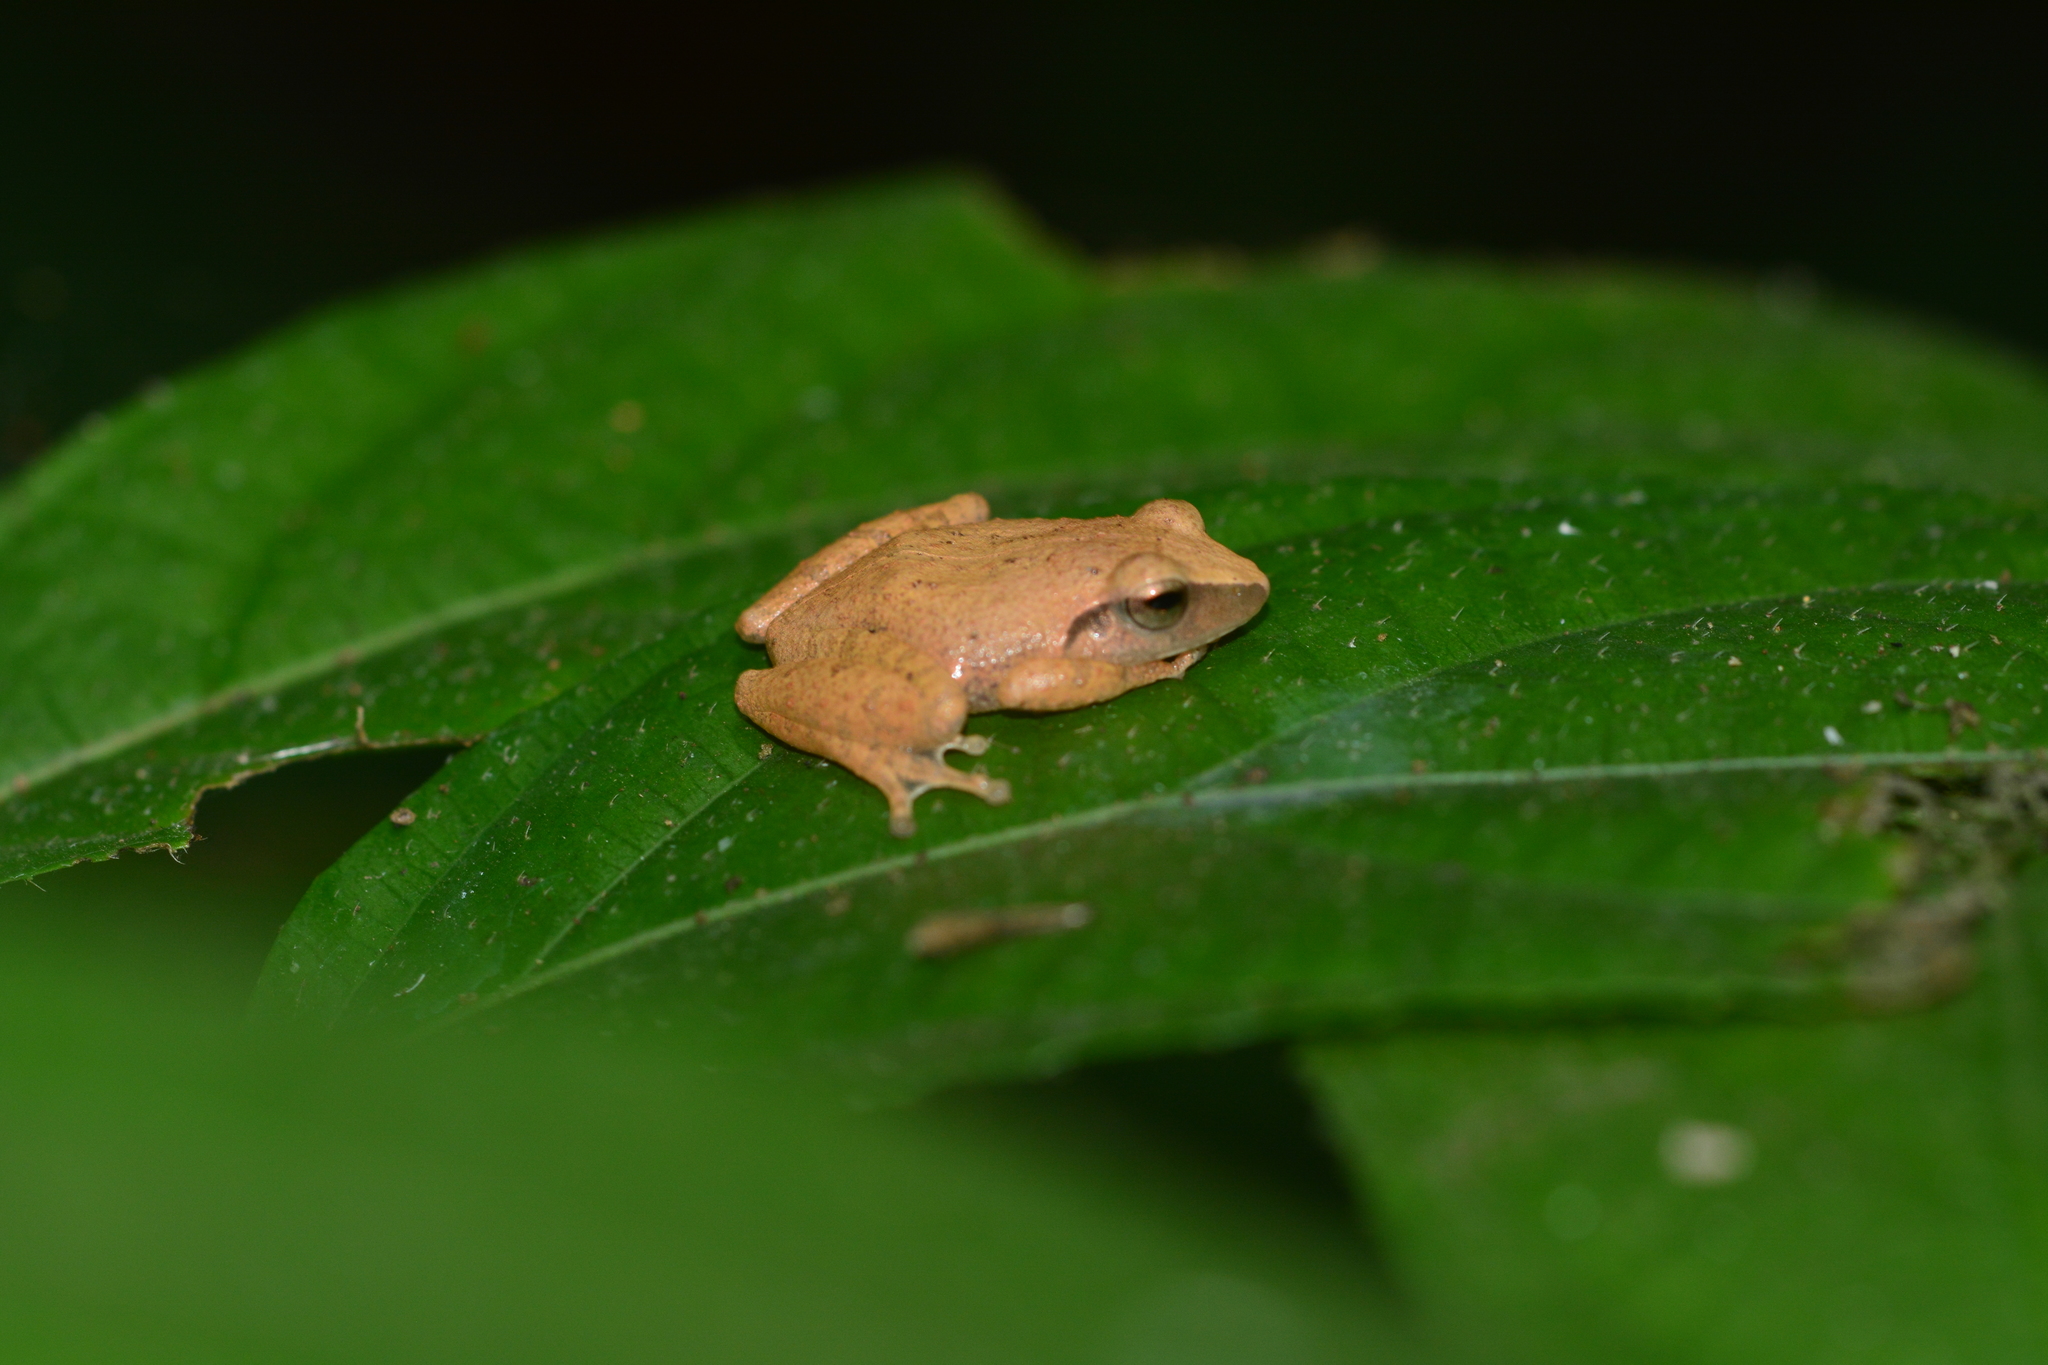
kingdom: Animalia
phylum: Chordata
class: Amphibia
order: Anura
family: Rhacophoridae
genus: Polypedates
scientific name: Polypedates maculatus
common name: Himalayan tree frog
